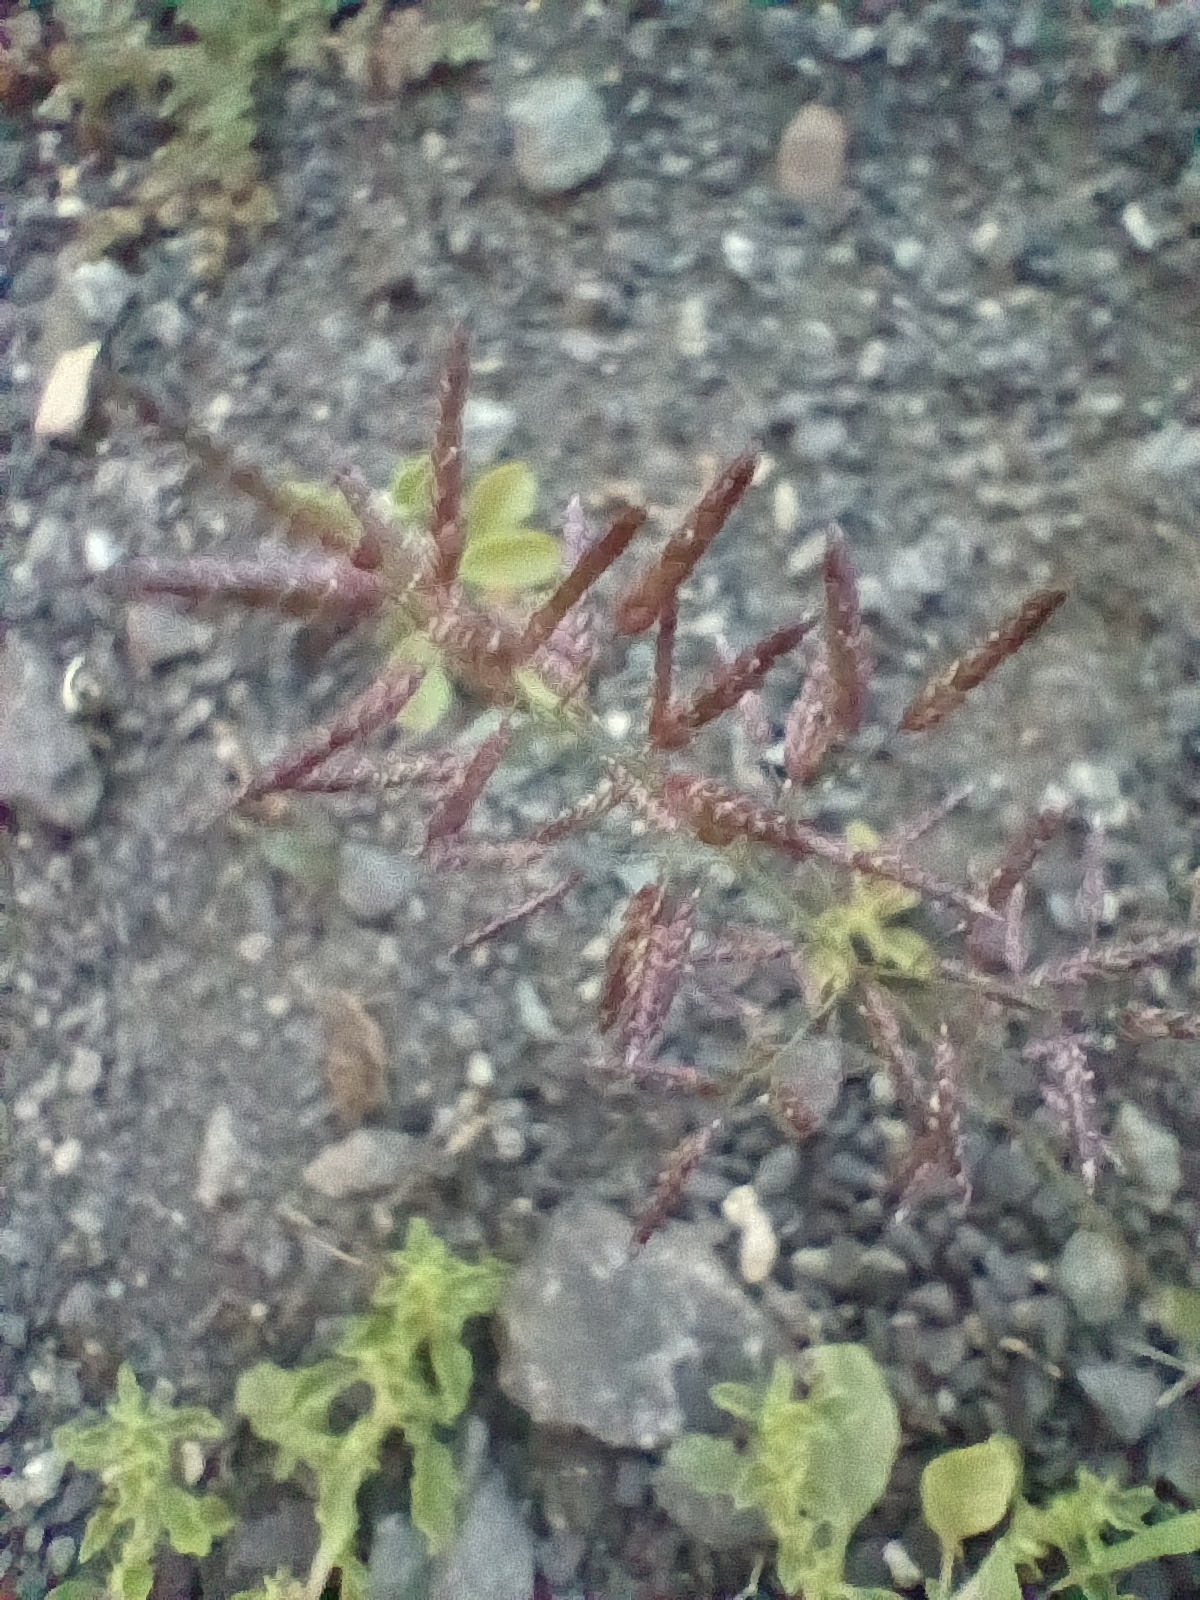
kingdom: Plantae
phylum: Tracheophyta
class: Liliopsida
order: Poales
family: Poaceae
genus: Eragrostis
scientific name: Eragrostis minor
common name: Small love-grass
